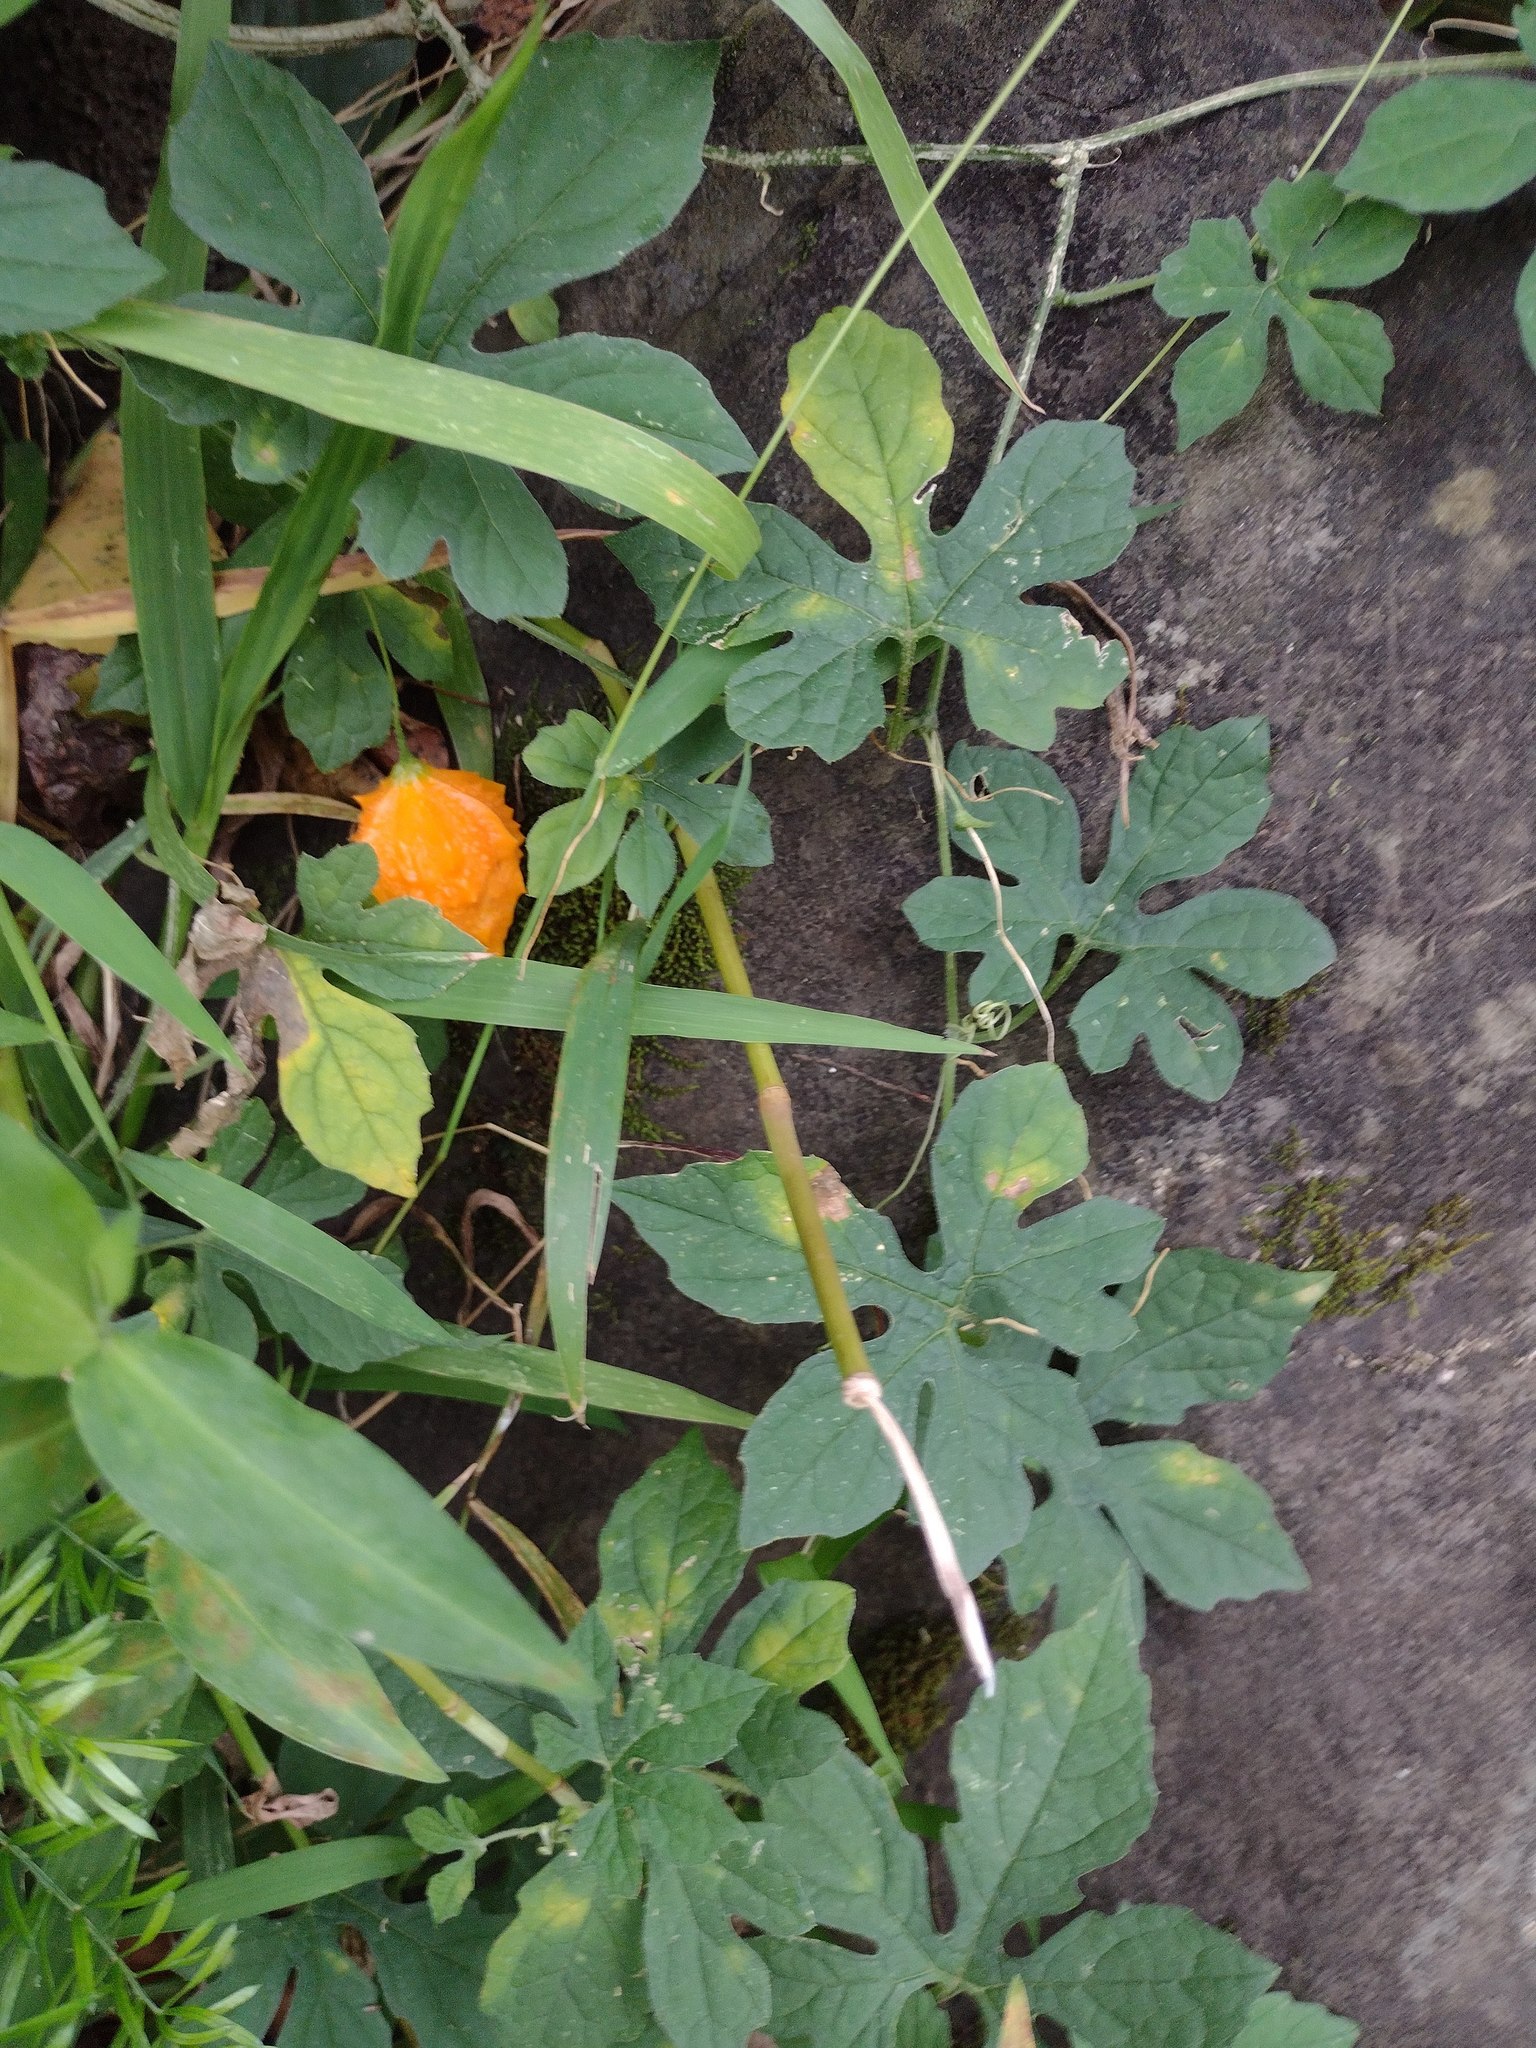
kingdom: Plantae
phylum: Tracheophyta
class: Magnoliopsida
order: Cucurbitales
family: Cucurbitaceae
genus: Momordica
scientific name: Momordica charantia
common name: Balsampear
